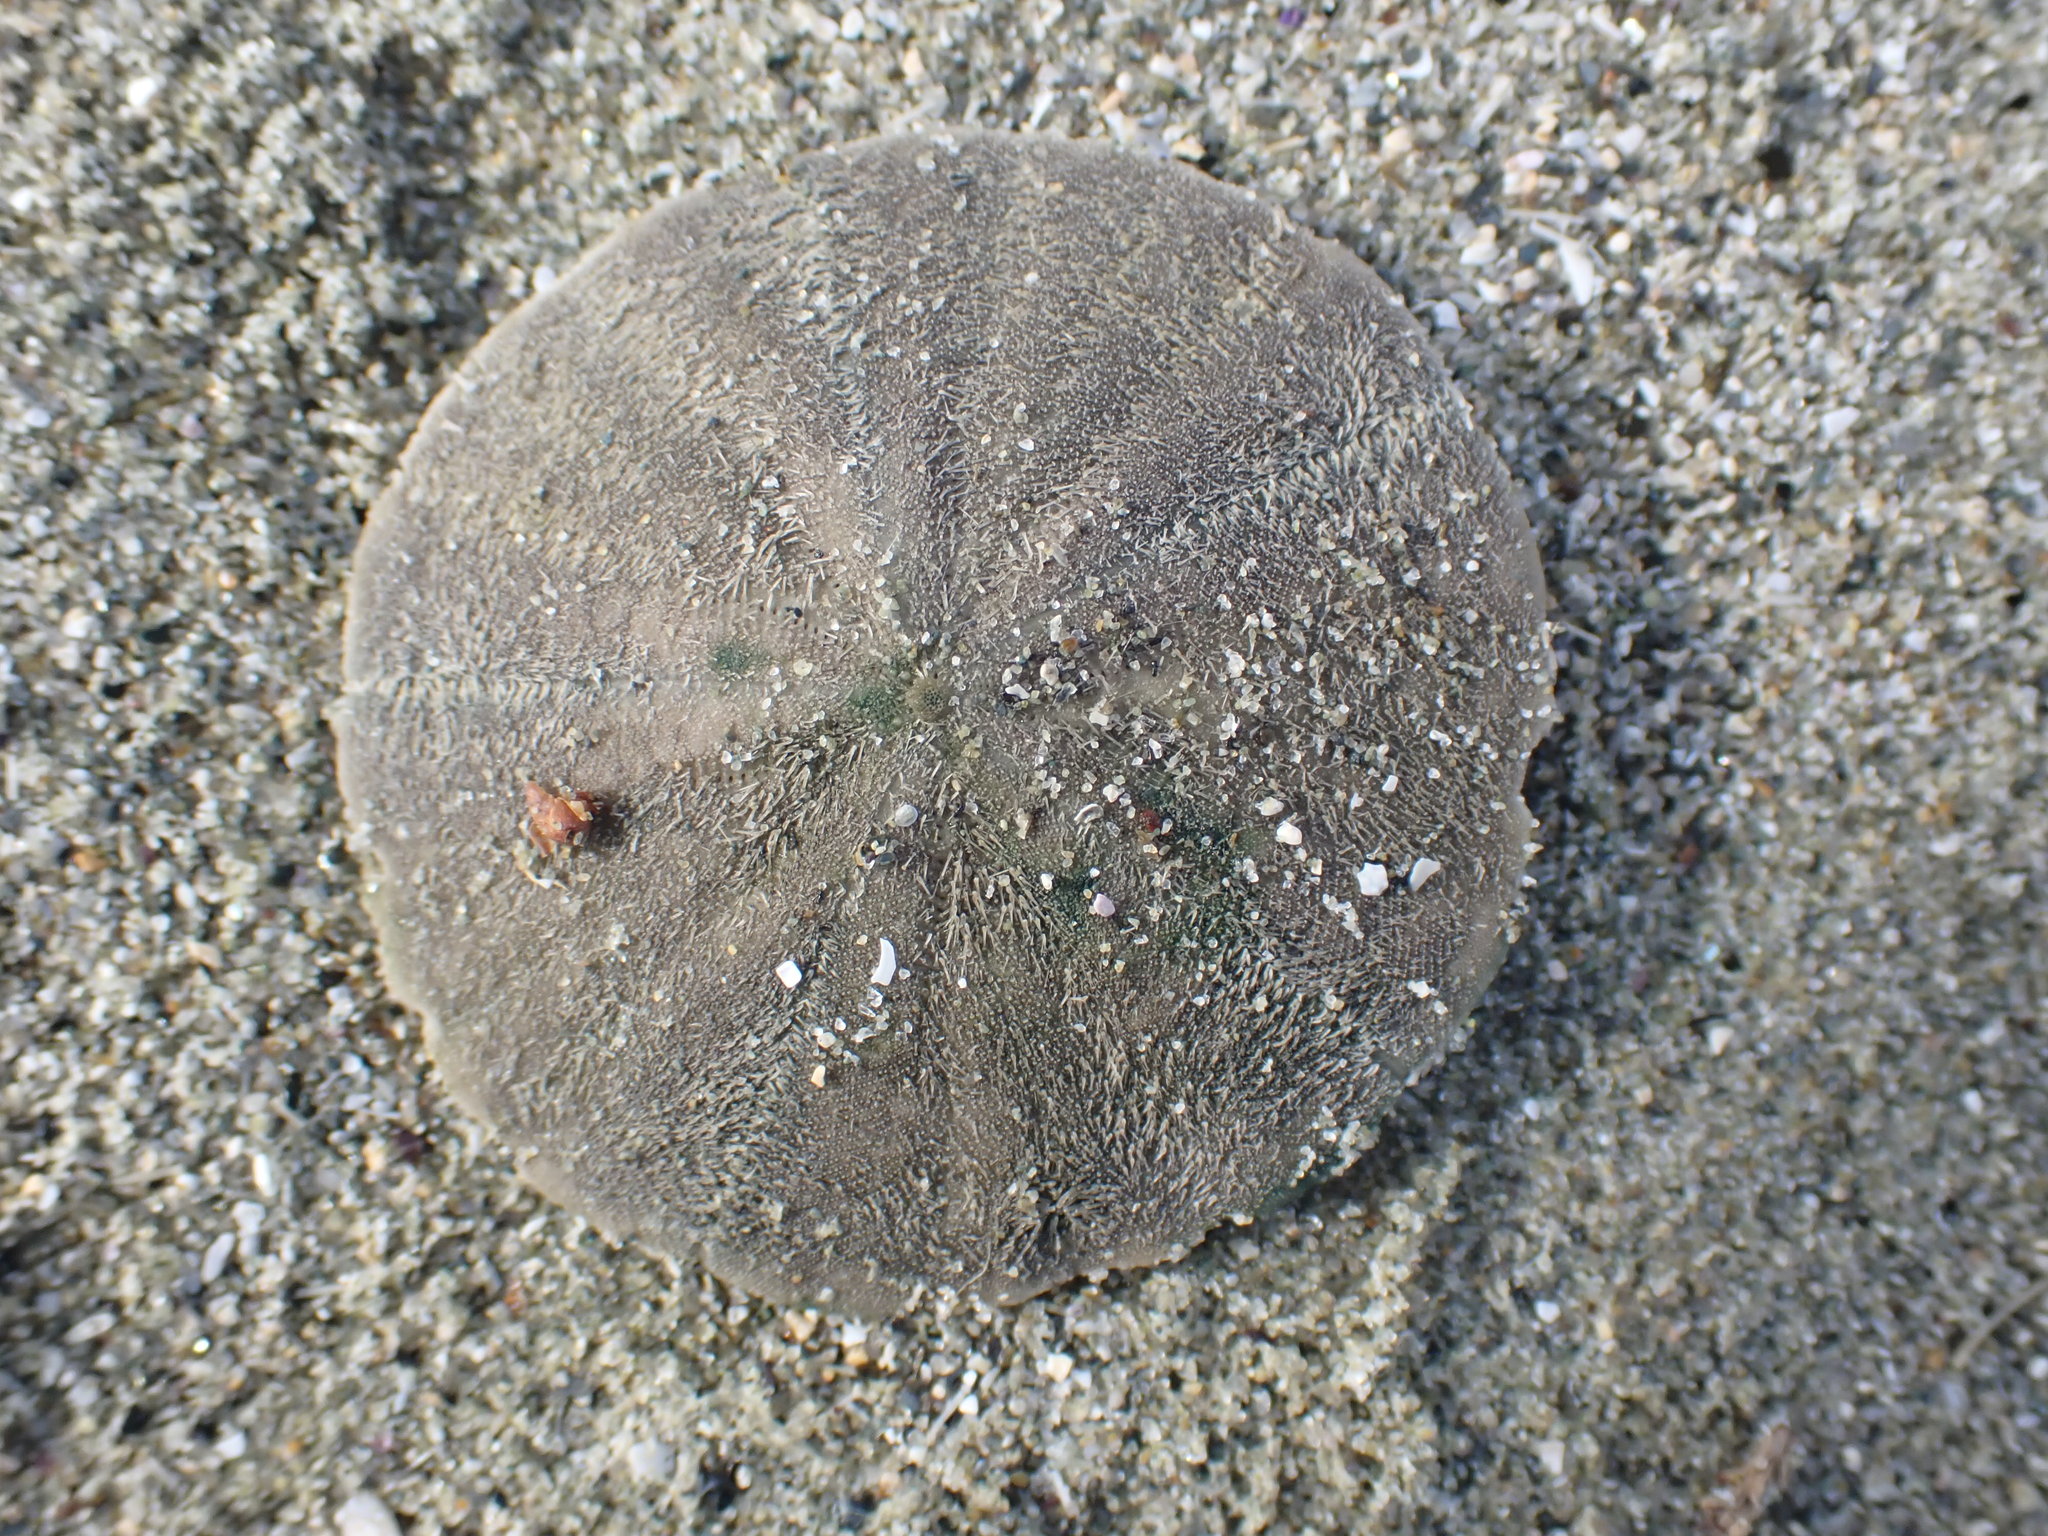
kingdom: Animalia
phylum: Echinodermata
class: Echinoidea
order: Clypeasteroida
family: Clypeasteridae
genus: Fellaster
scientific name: Fellaster zelandiae
